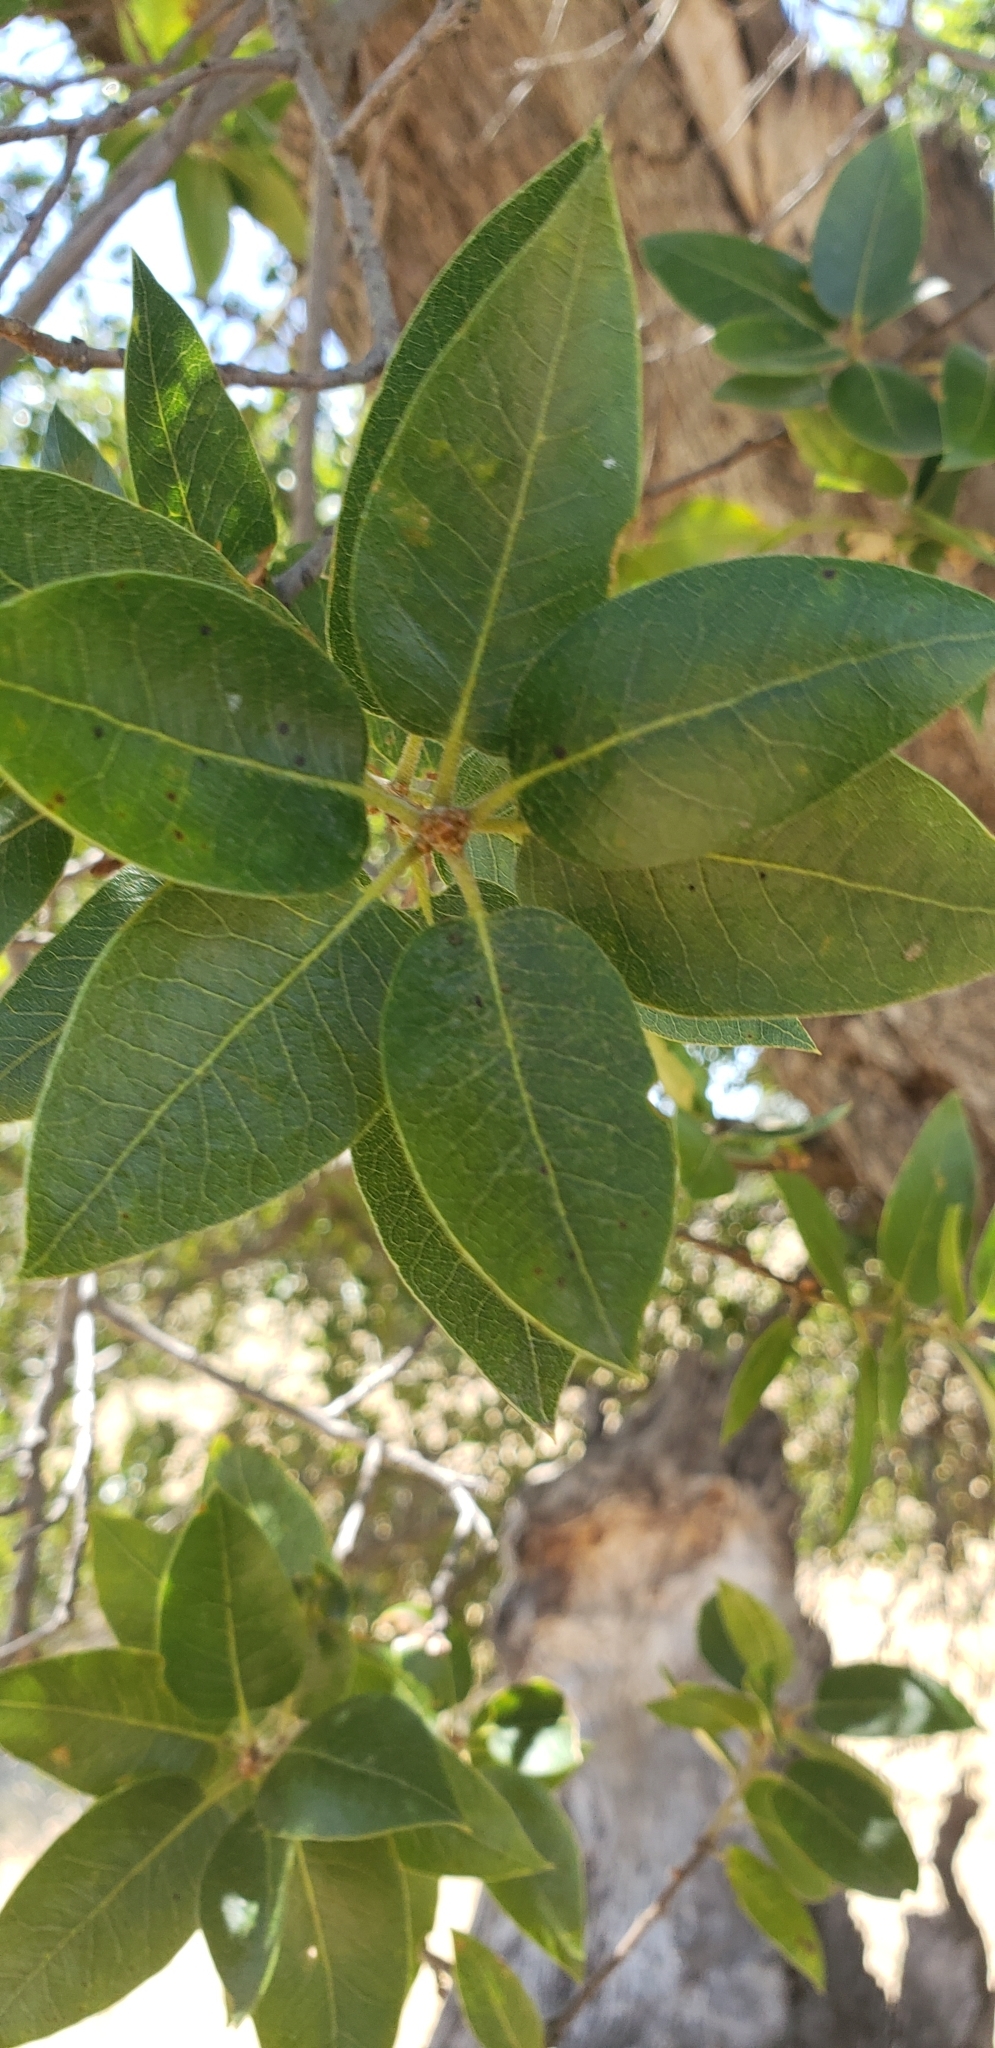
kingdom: Plantae
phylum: Tracheophyta
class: Magnoliopsida
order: Fagales
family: Fagaceae
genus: Quercus
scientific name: Quercus wislizeni
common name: Interior live oak
